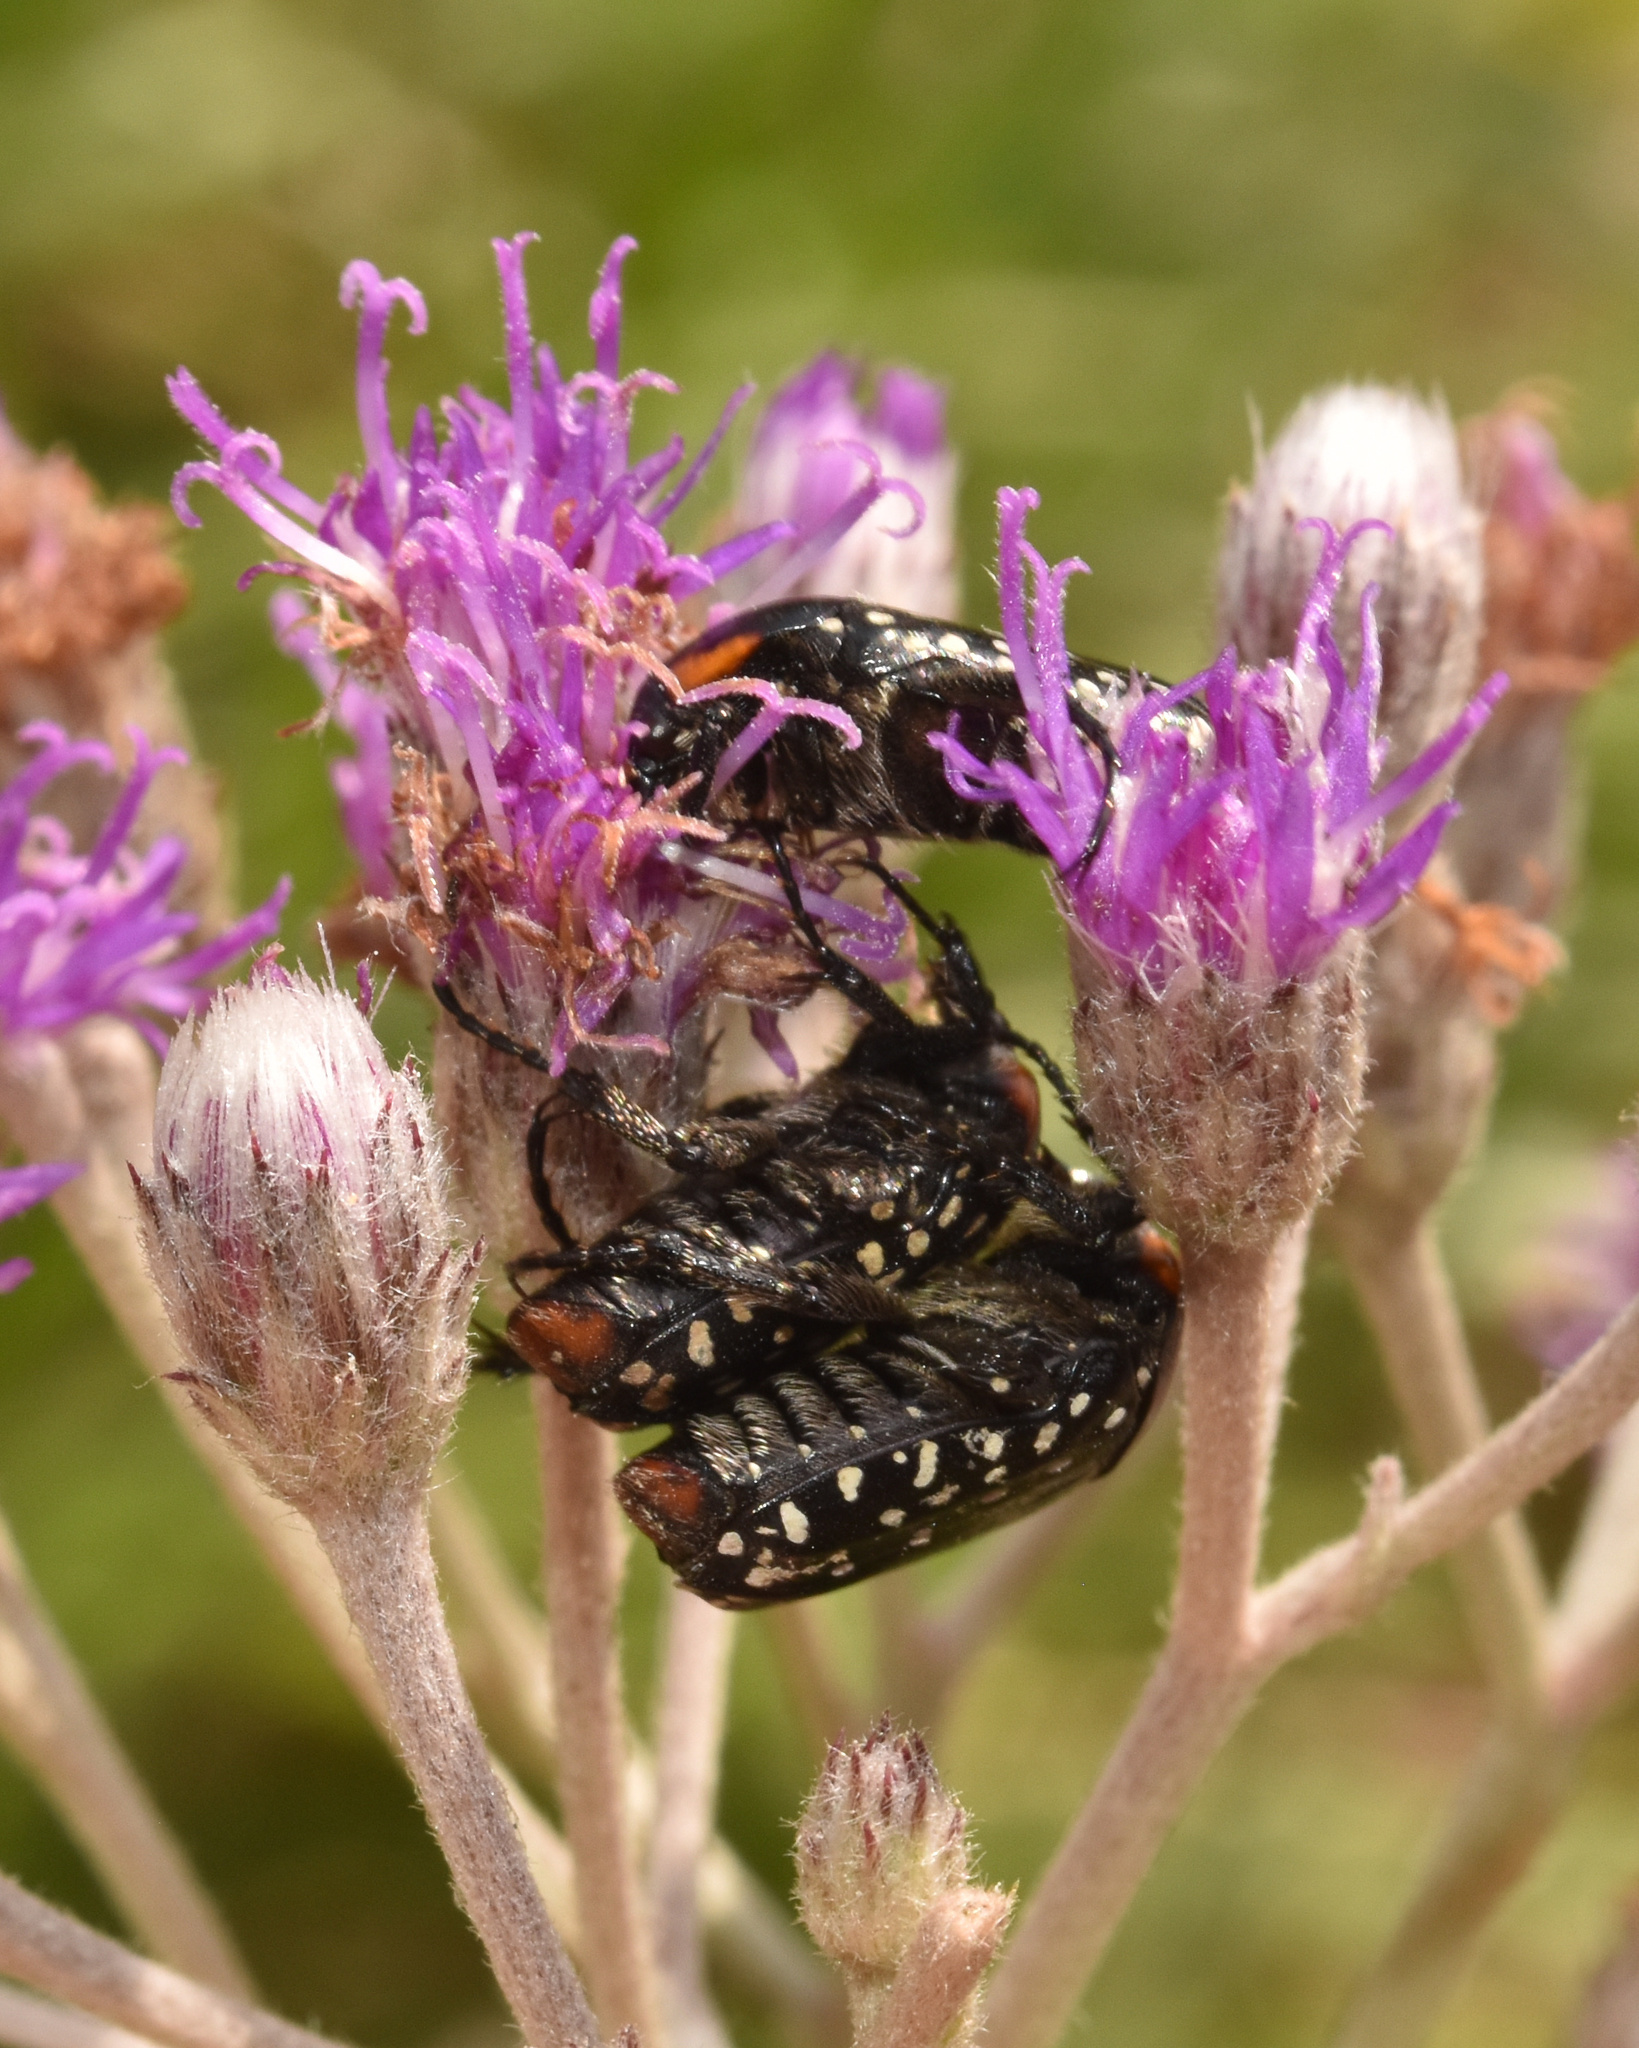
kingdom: Animalia
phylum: Arthropoda
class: Insecta
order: Coleoptera
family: Scarabaeidae
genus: Oxythyrea
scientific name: Oxythyrea
